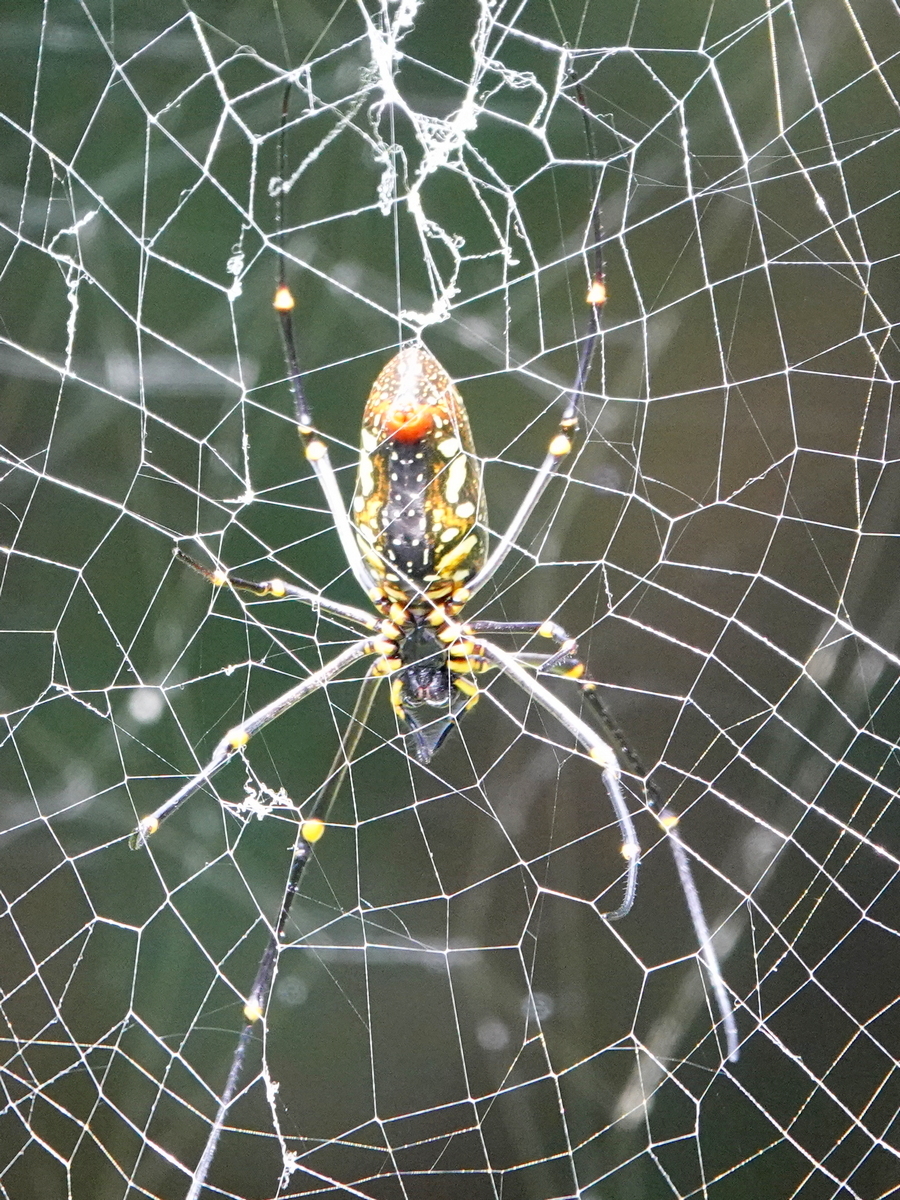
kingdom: Animalia
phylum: Arthropoda
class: Arachnida
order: Araneae
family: Araneidae
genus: Nephila
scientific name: Nephila pilipes
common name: Giant golden orb weaver
